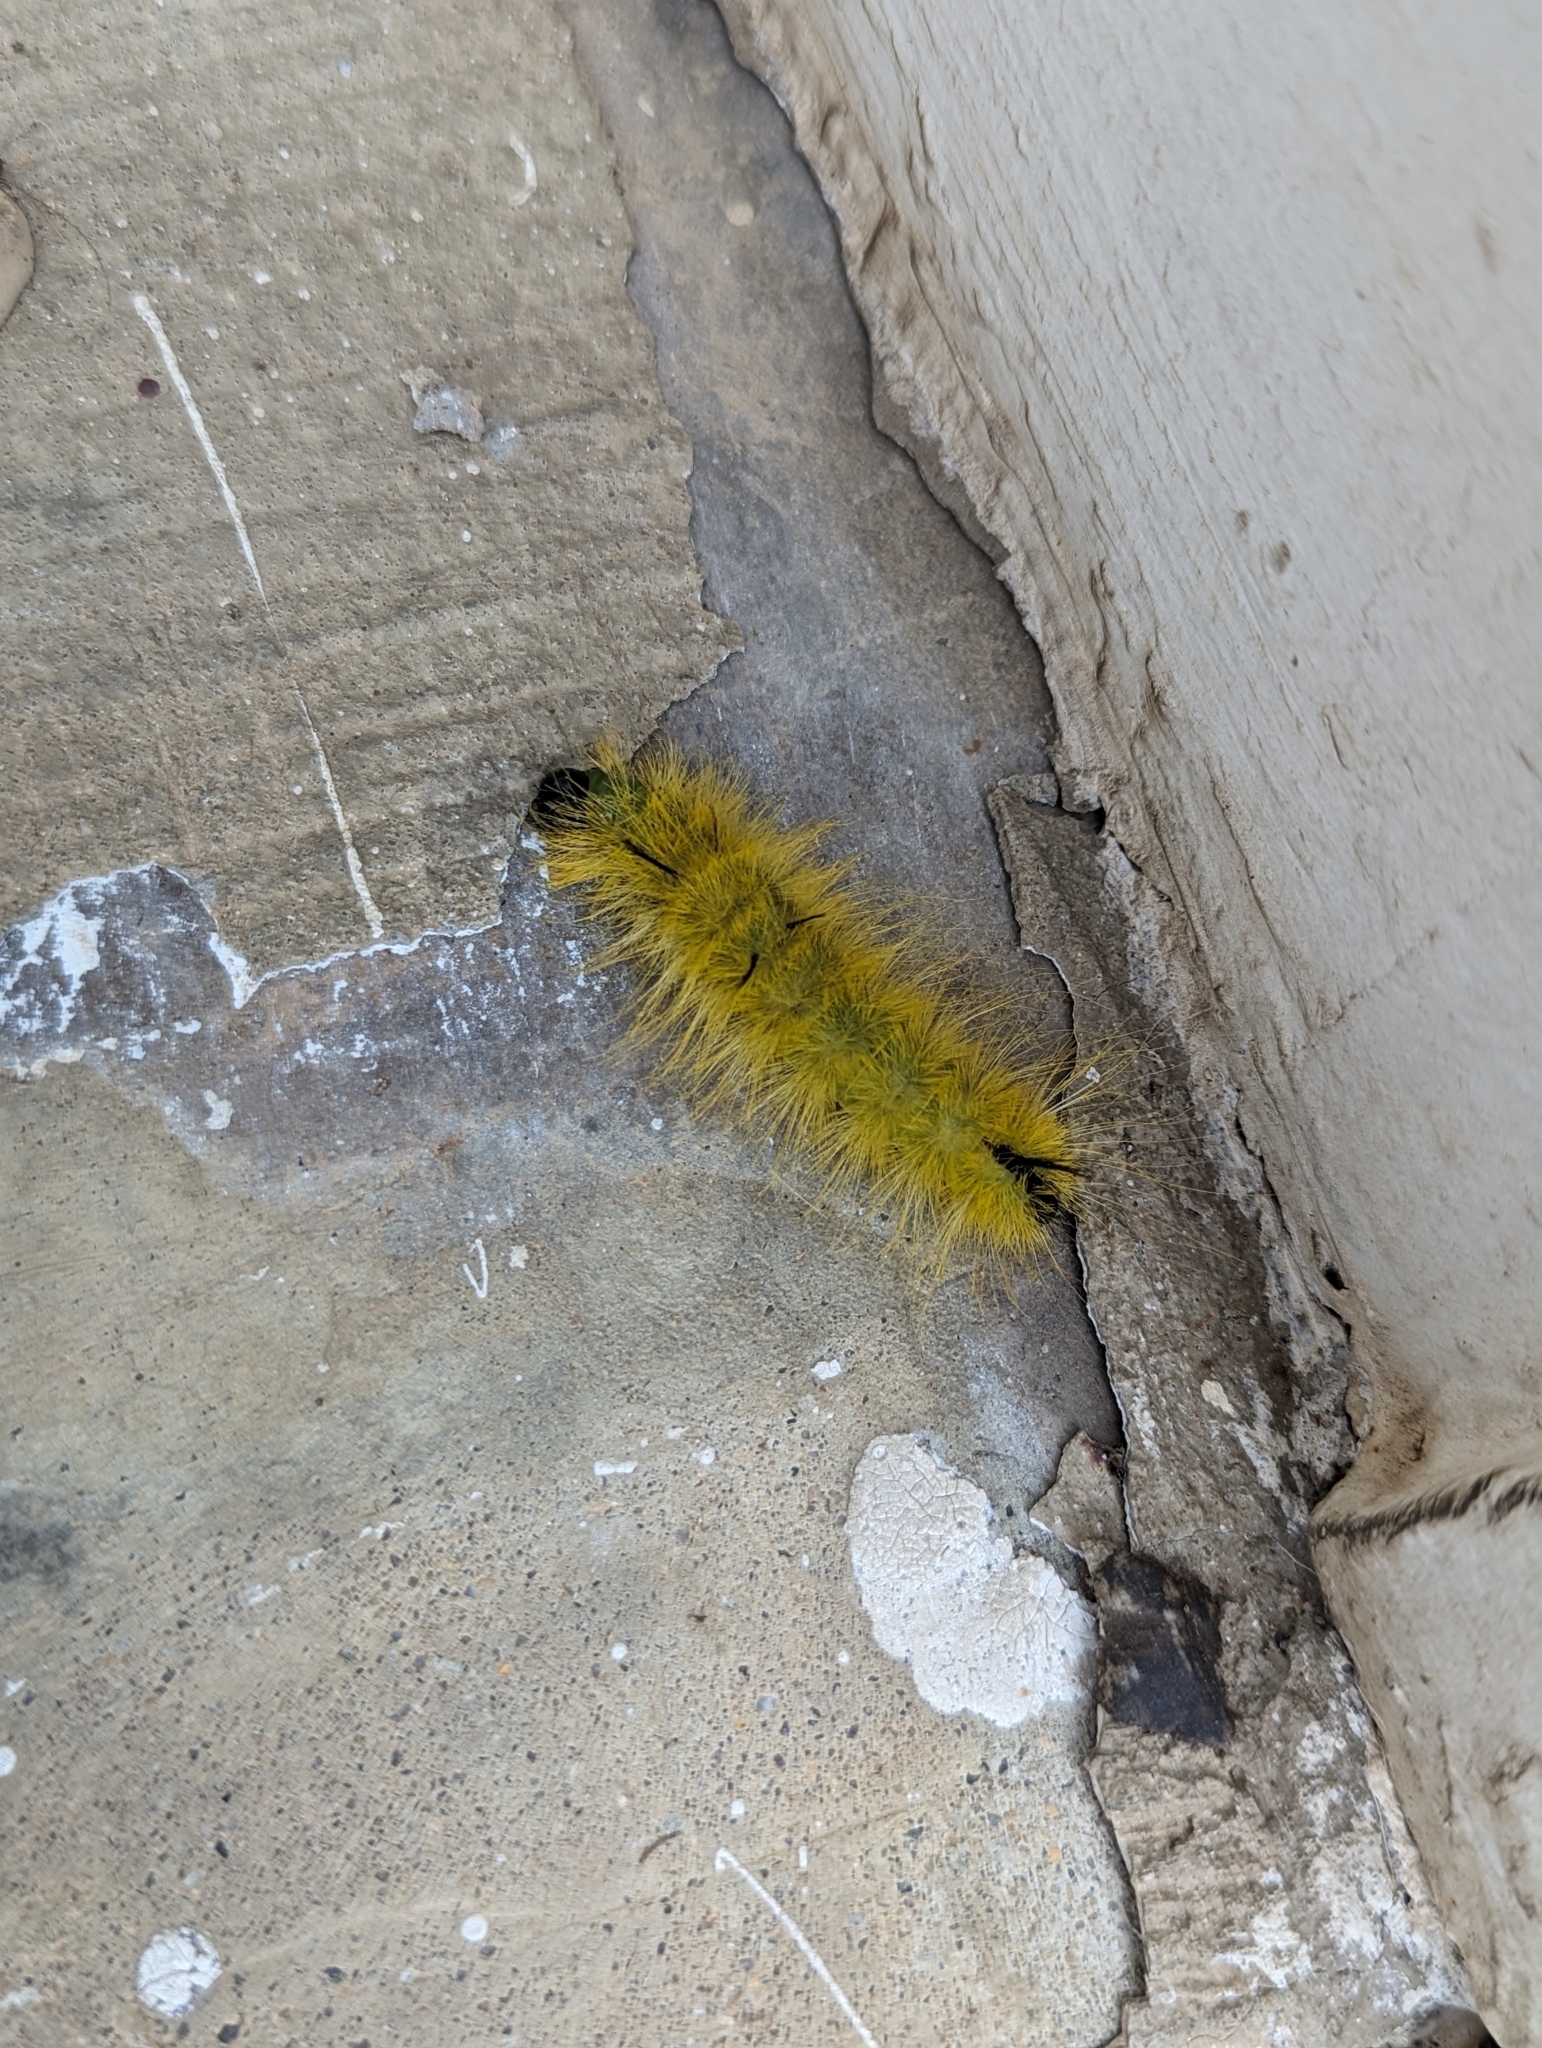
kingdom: Animalia
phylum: Arthropoda
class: Insecta
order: Lepidoptera
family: Noctuidae
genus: Acronicta
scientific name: Acronicta americana
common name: American dagger
